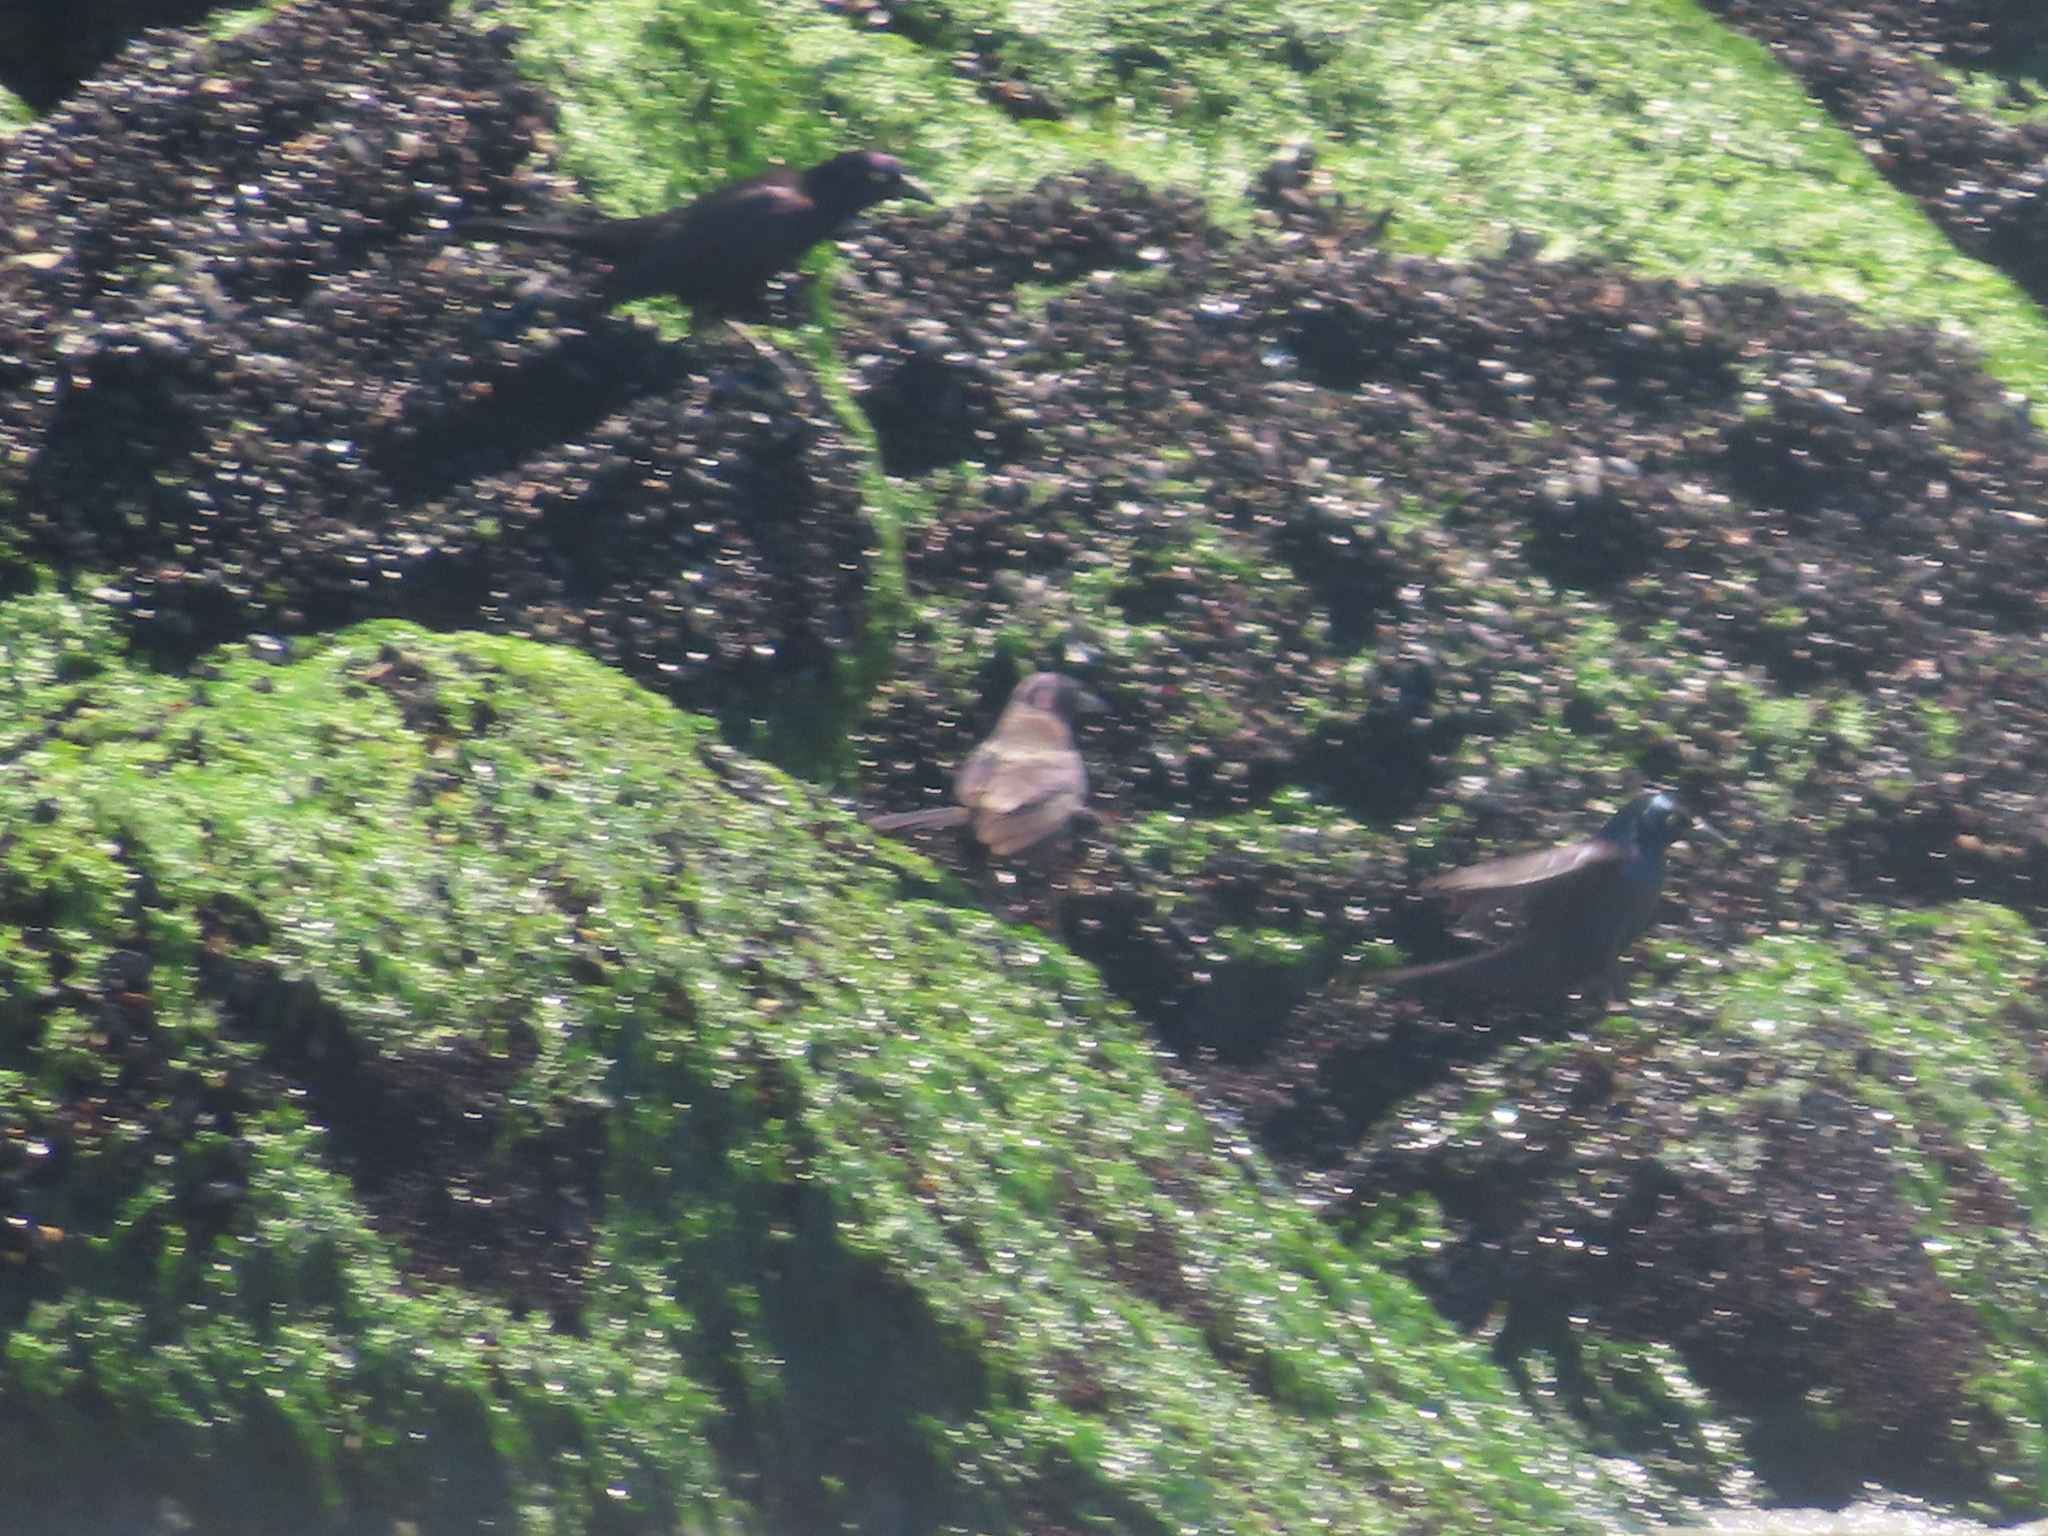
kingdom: Animalia
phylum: Chordata
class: Aves
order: Passeriformes
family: Icteridae
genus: Quiscalus
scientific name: Quiscalus quiscula
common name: Common grackle
